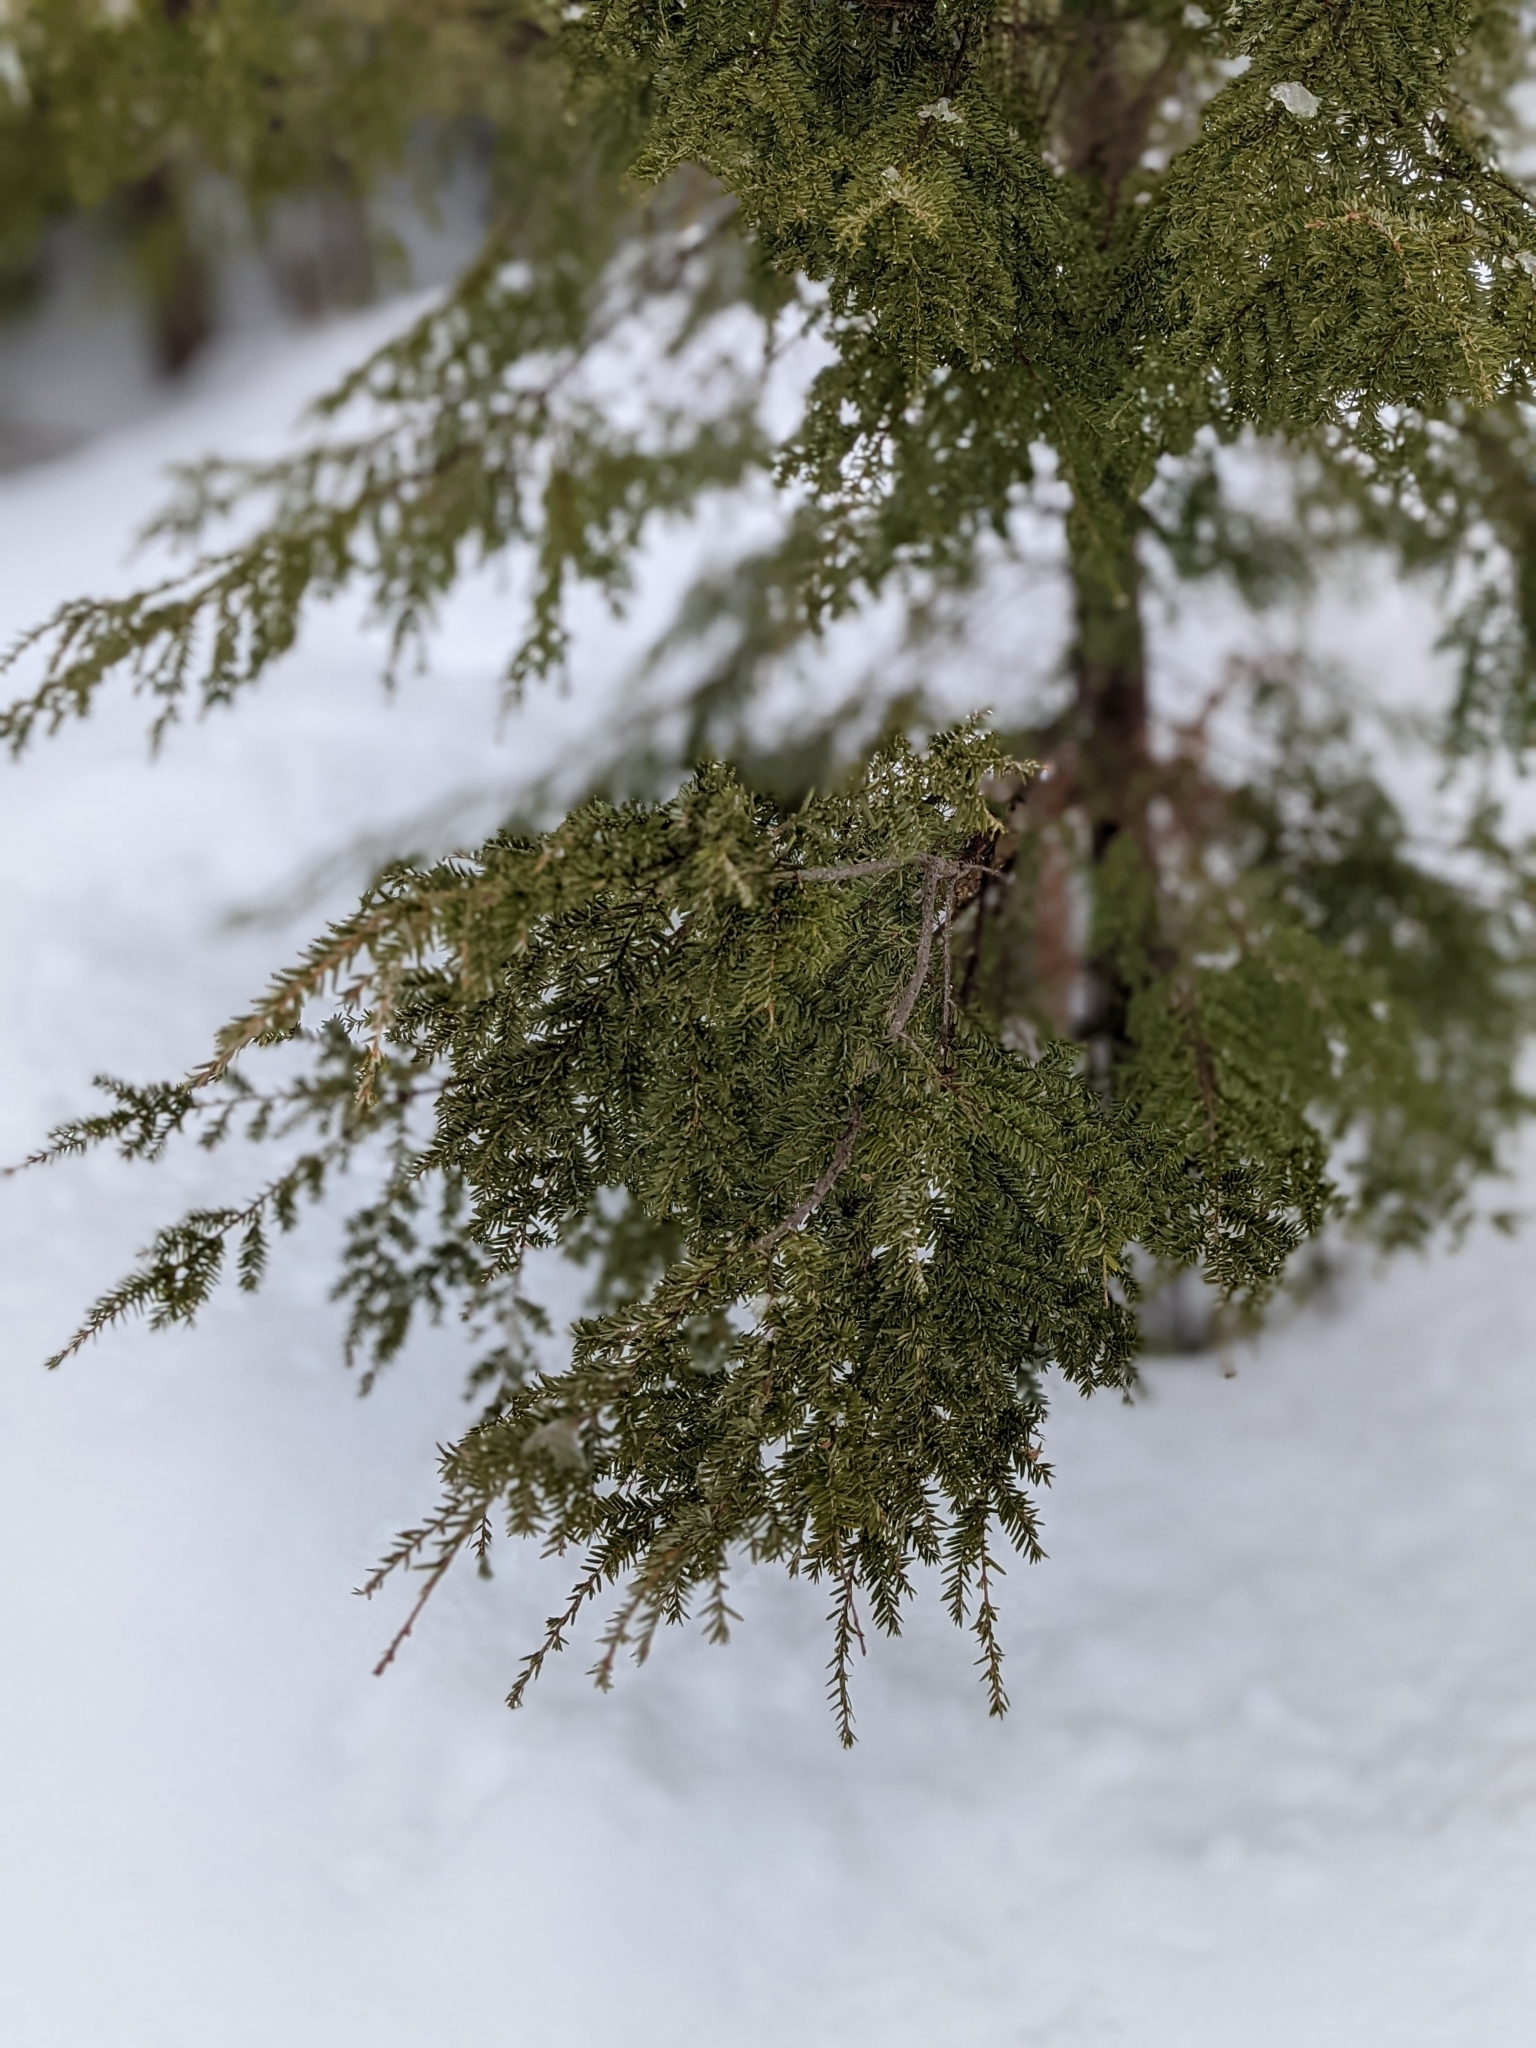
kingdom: Plantae
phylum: Tracheophyta
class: Pinopsida
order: Pinales
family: Pinaceae
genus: Tsuga
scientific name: Tsuga canadensis
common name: Eastern hemlock
